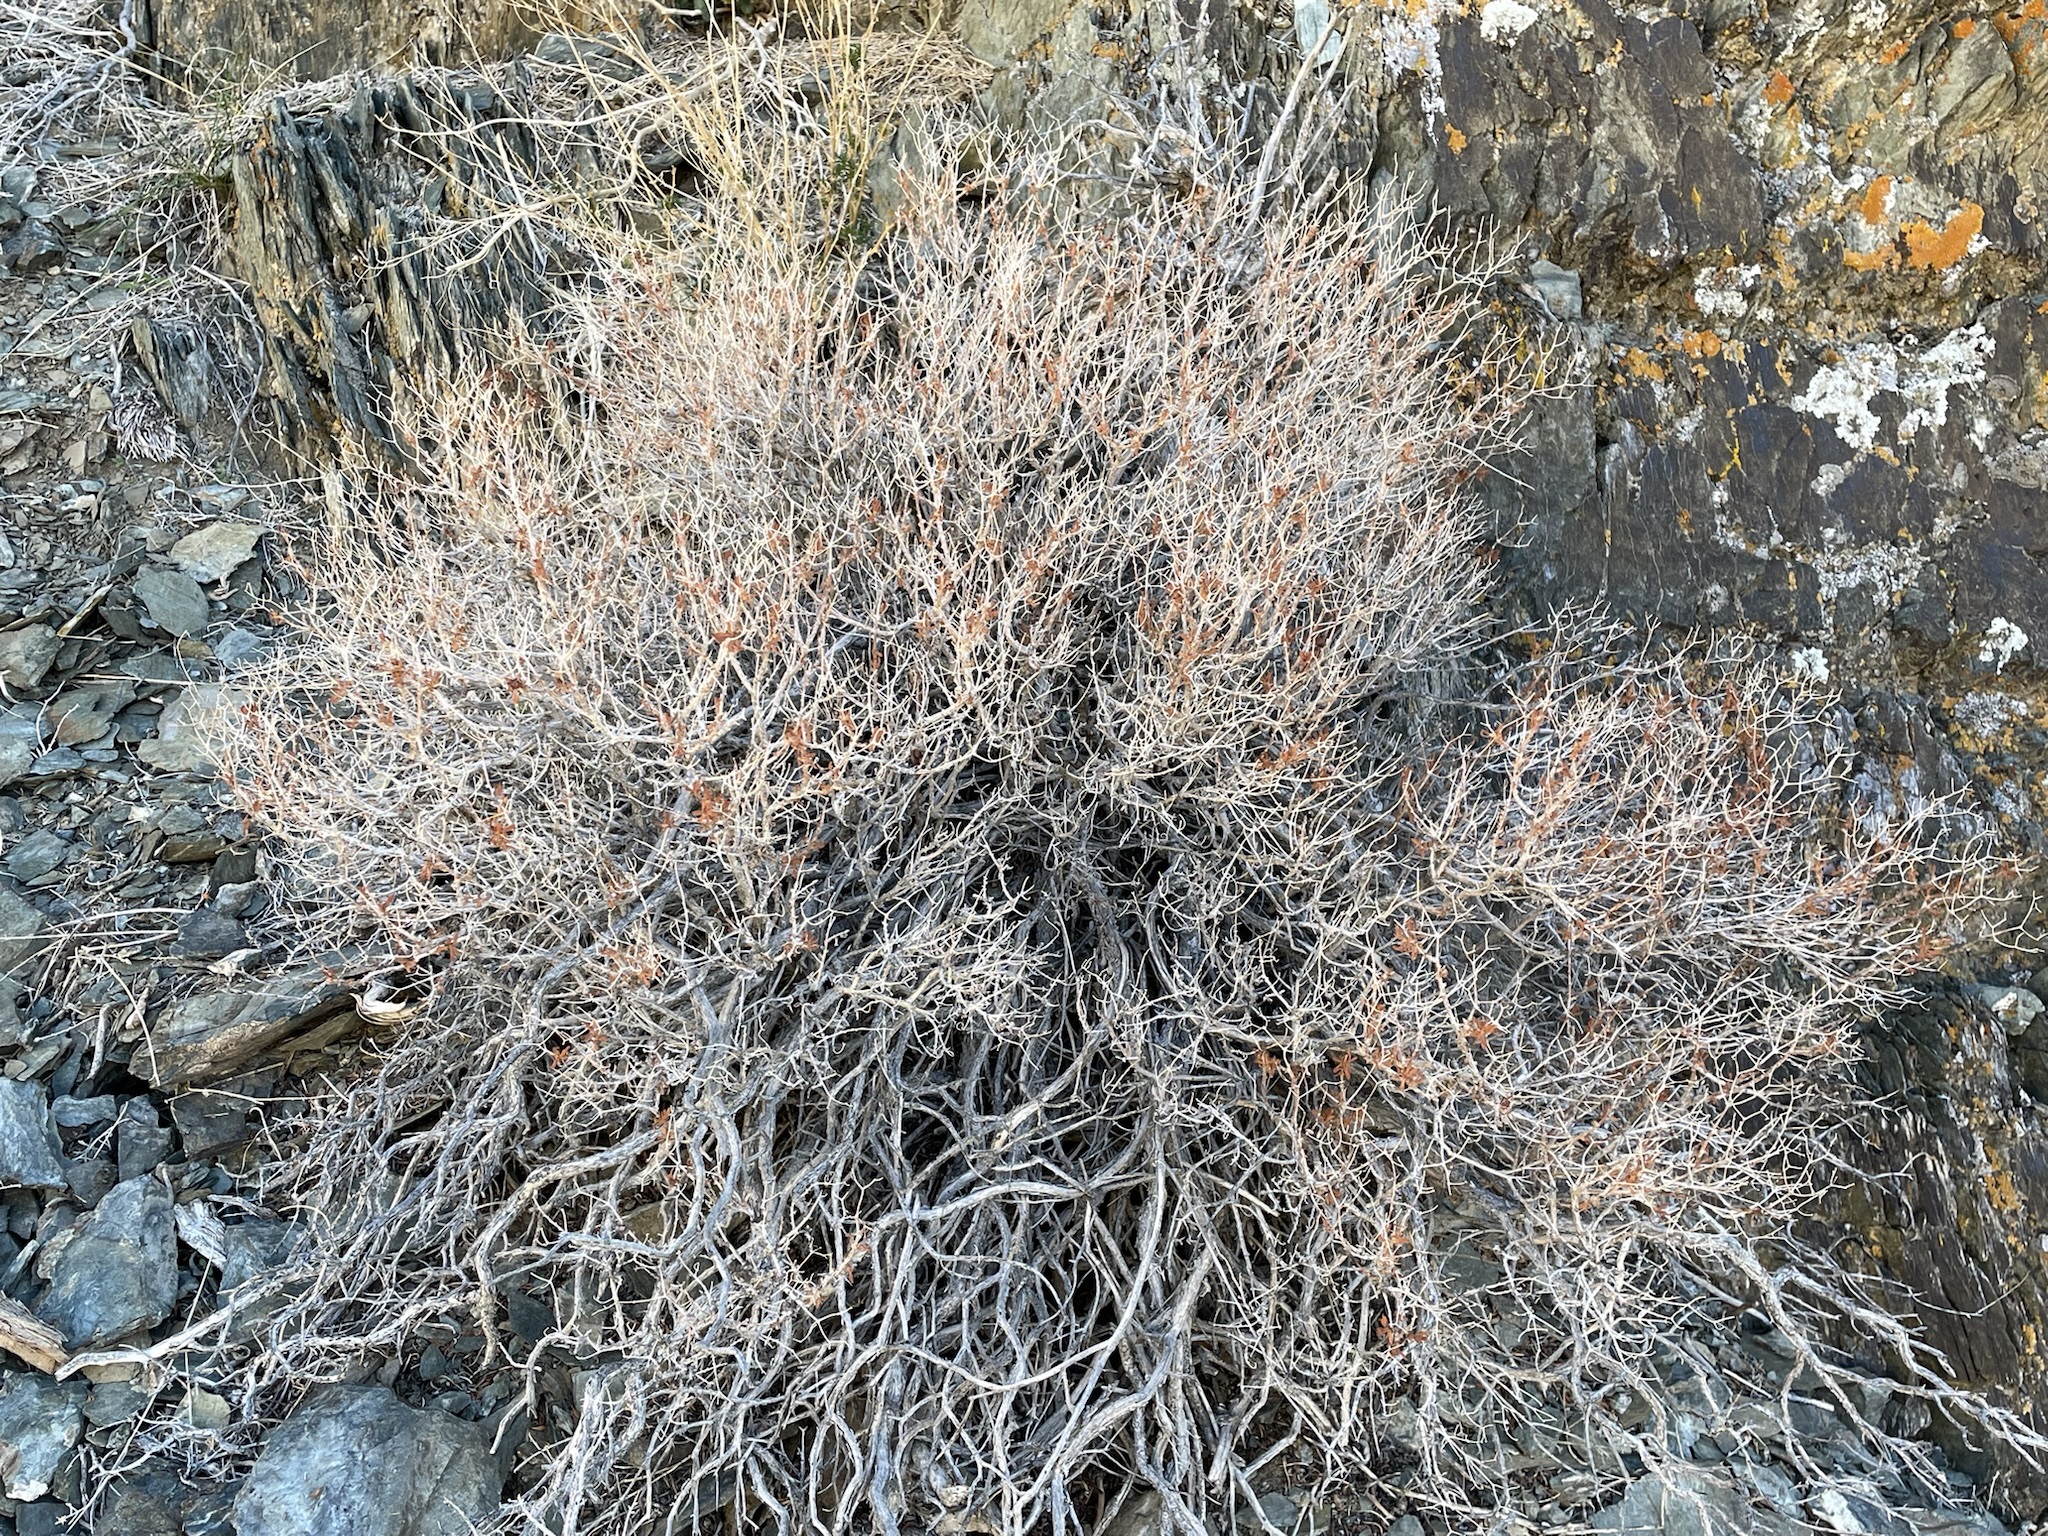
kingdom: Plantae
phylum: Tracheophyta
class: Magnoliopsida
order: Caryophyllales
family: Polygonaceae
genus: Dedeckera
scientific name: Dedeckera eurekensis
